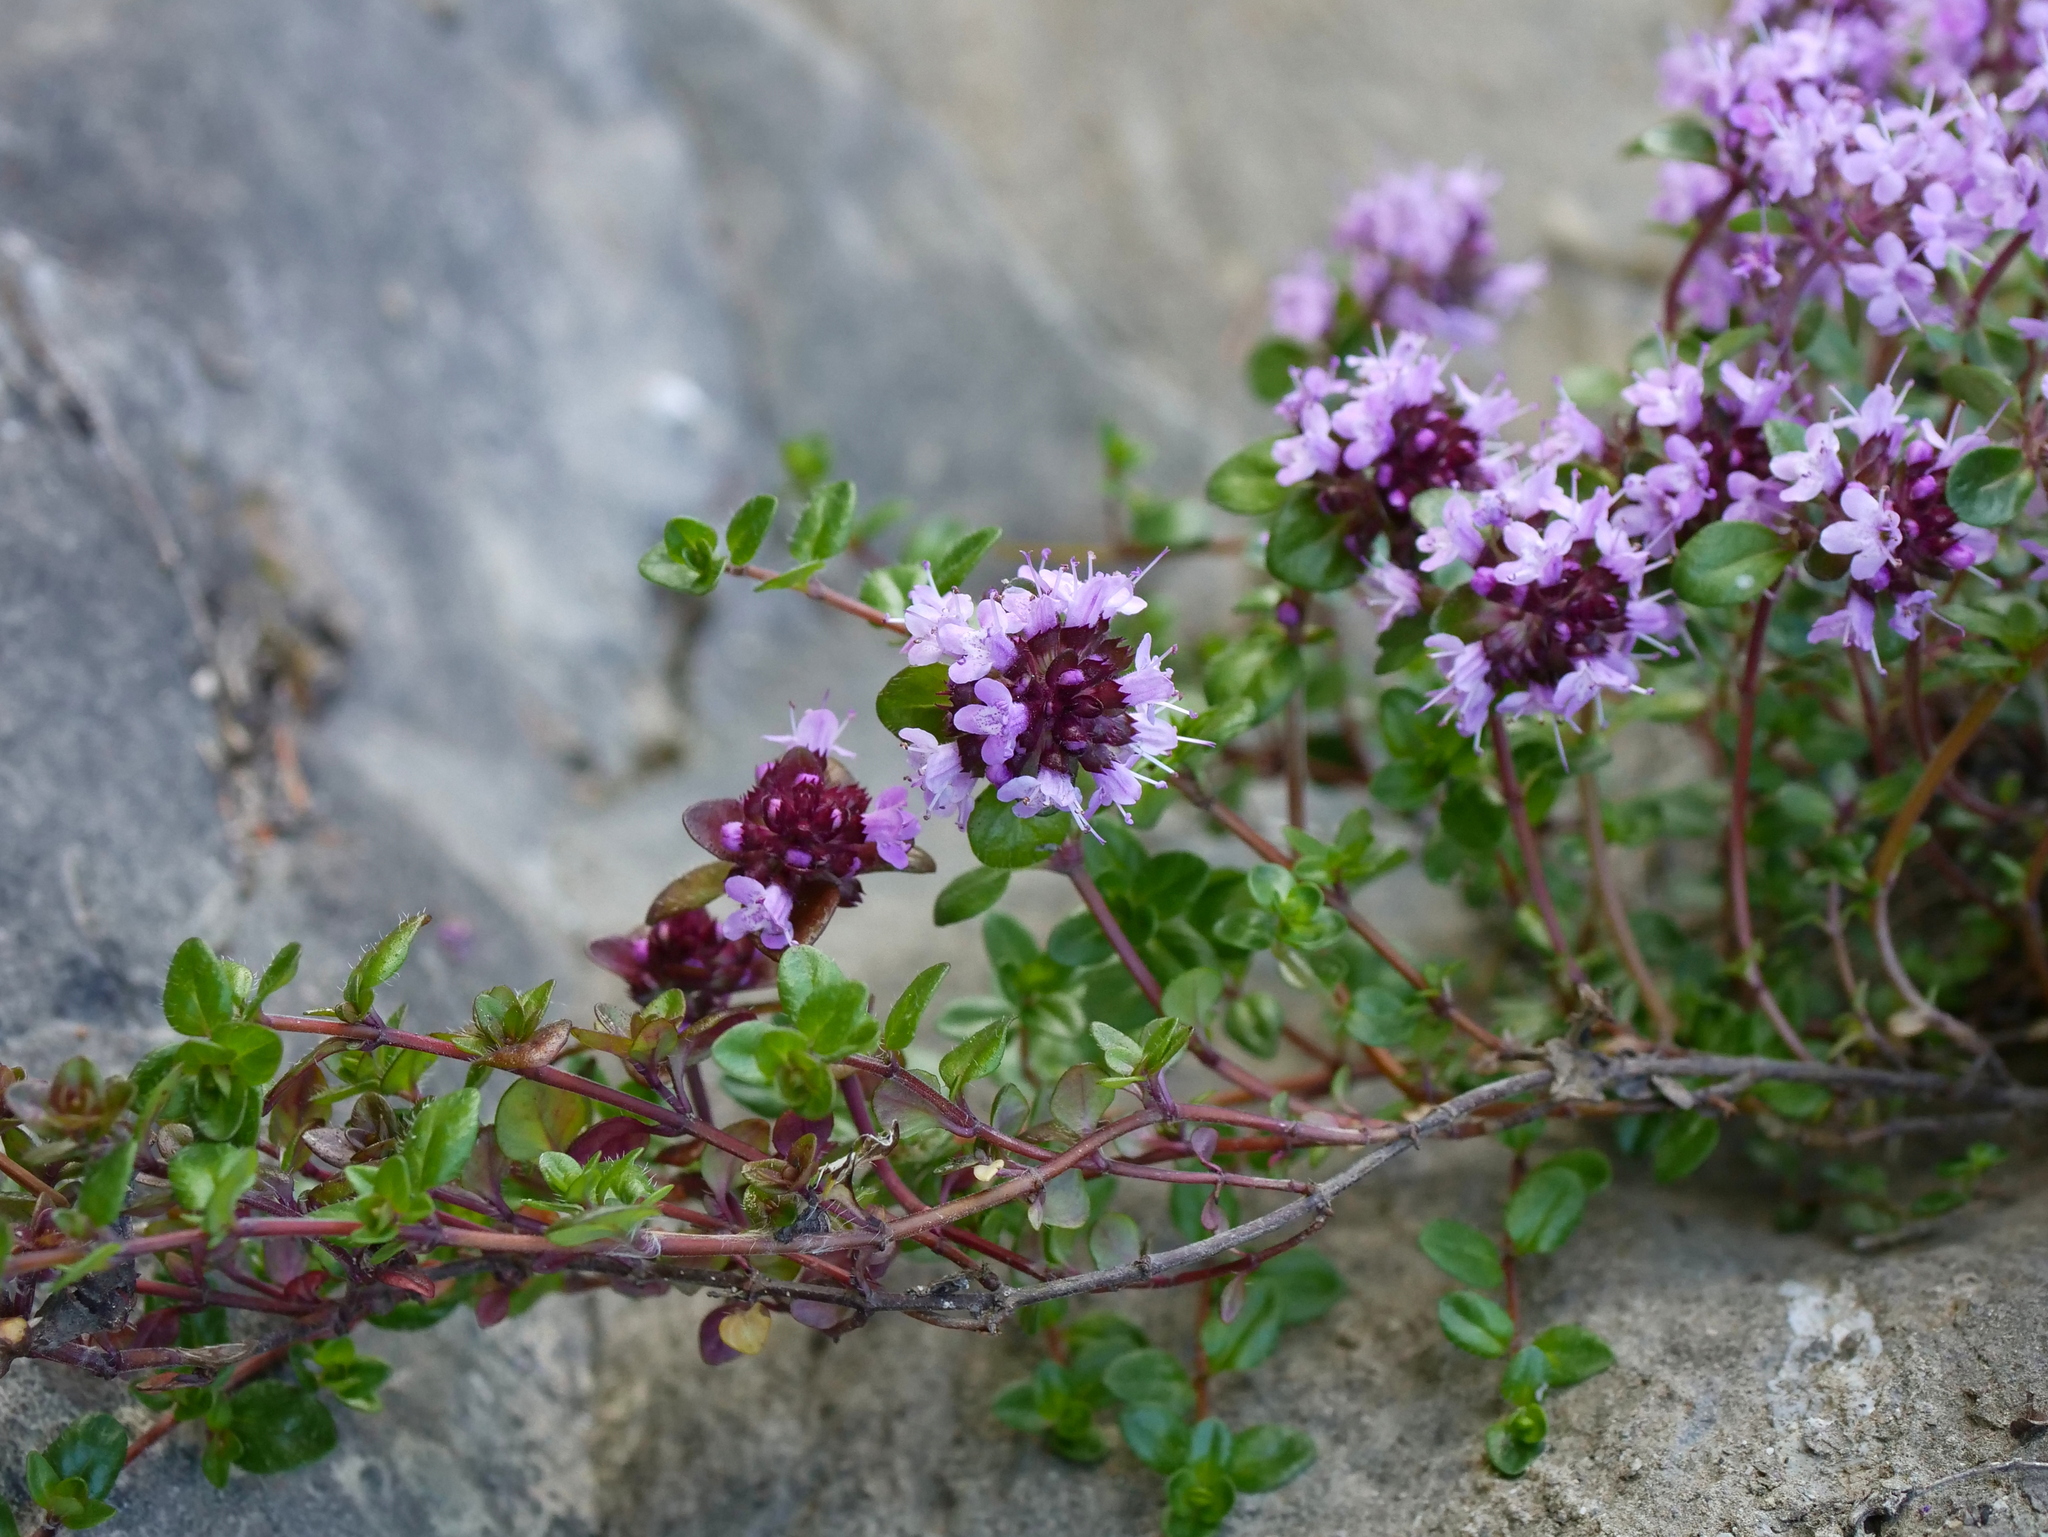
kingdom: Plantae
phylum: Tracheophyta
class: Magnoliopsida
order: Lamiales
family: Lamiaceae
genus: Thymus
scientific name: Thymus praecox
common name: Wild thyme
